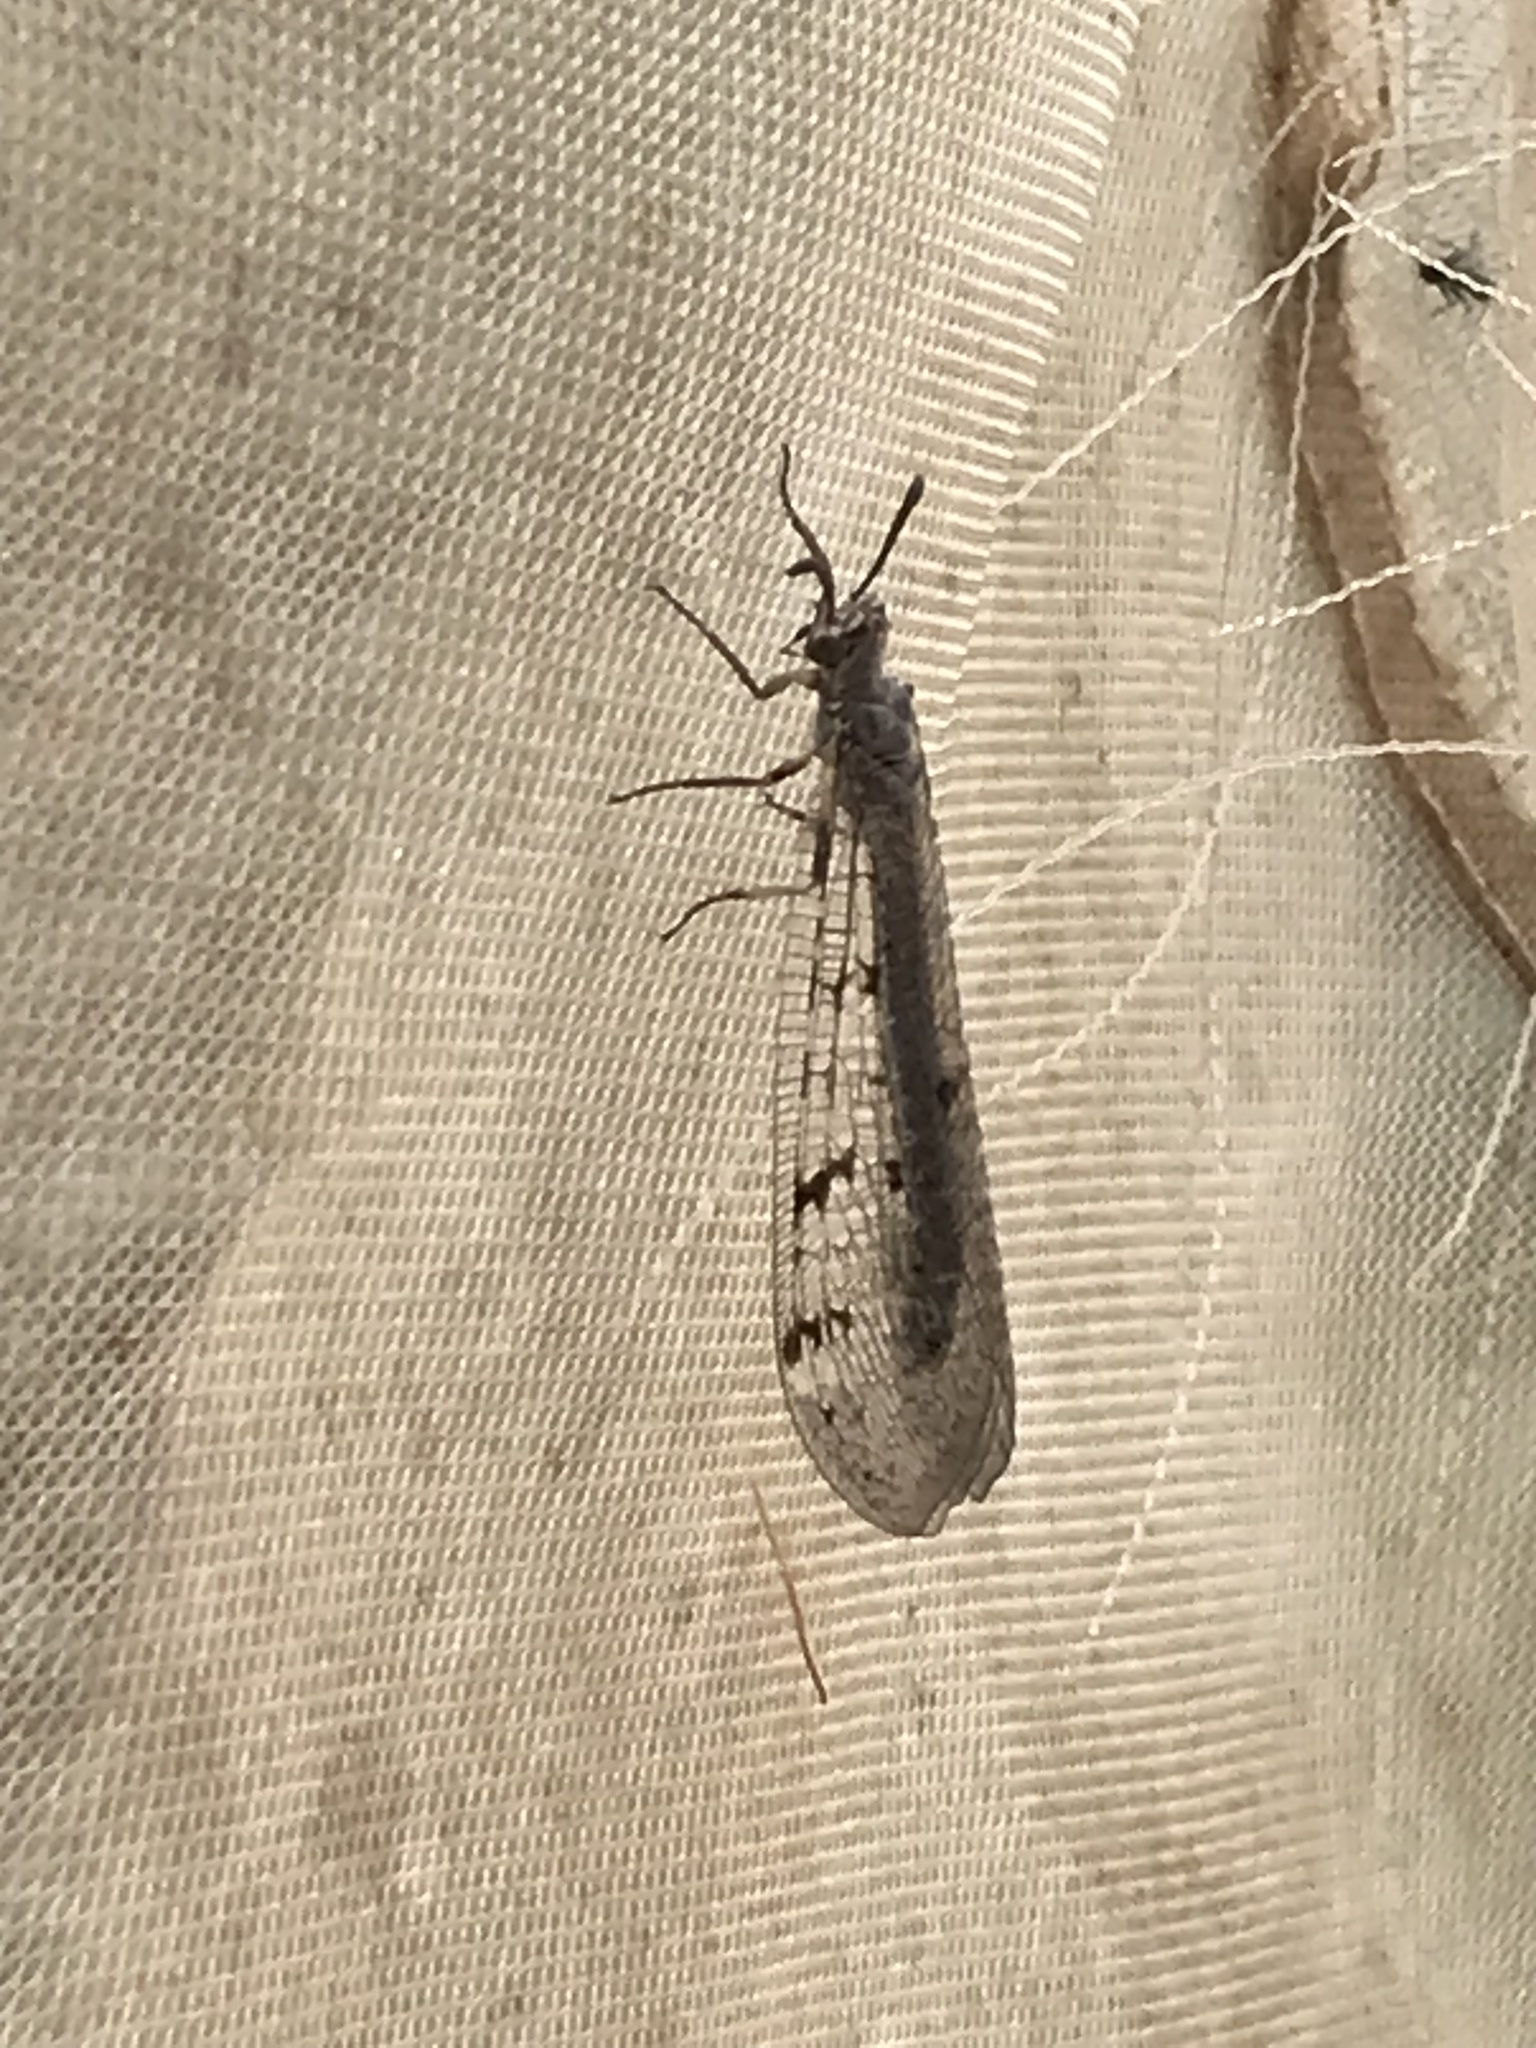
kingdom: Animalia
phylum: Arthropoda
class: Insecta
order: Neuroptera
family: Myrmeleontidae
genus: Euroleon
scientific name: Euroleon nostras
